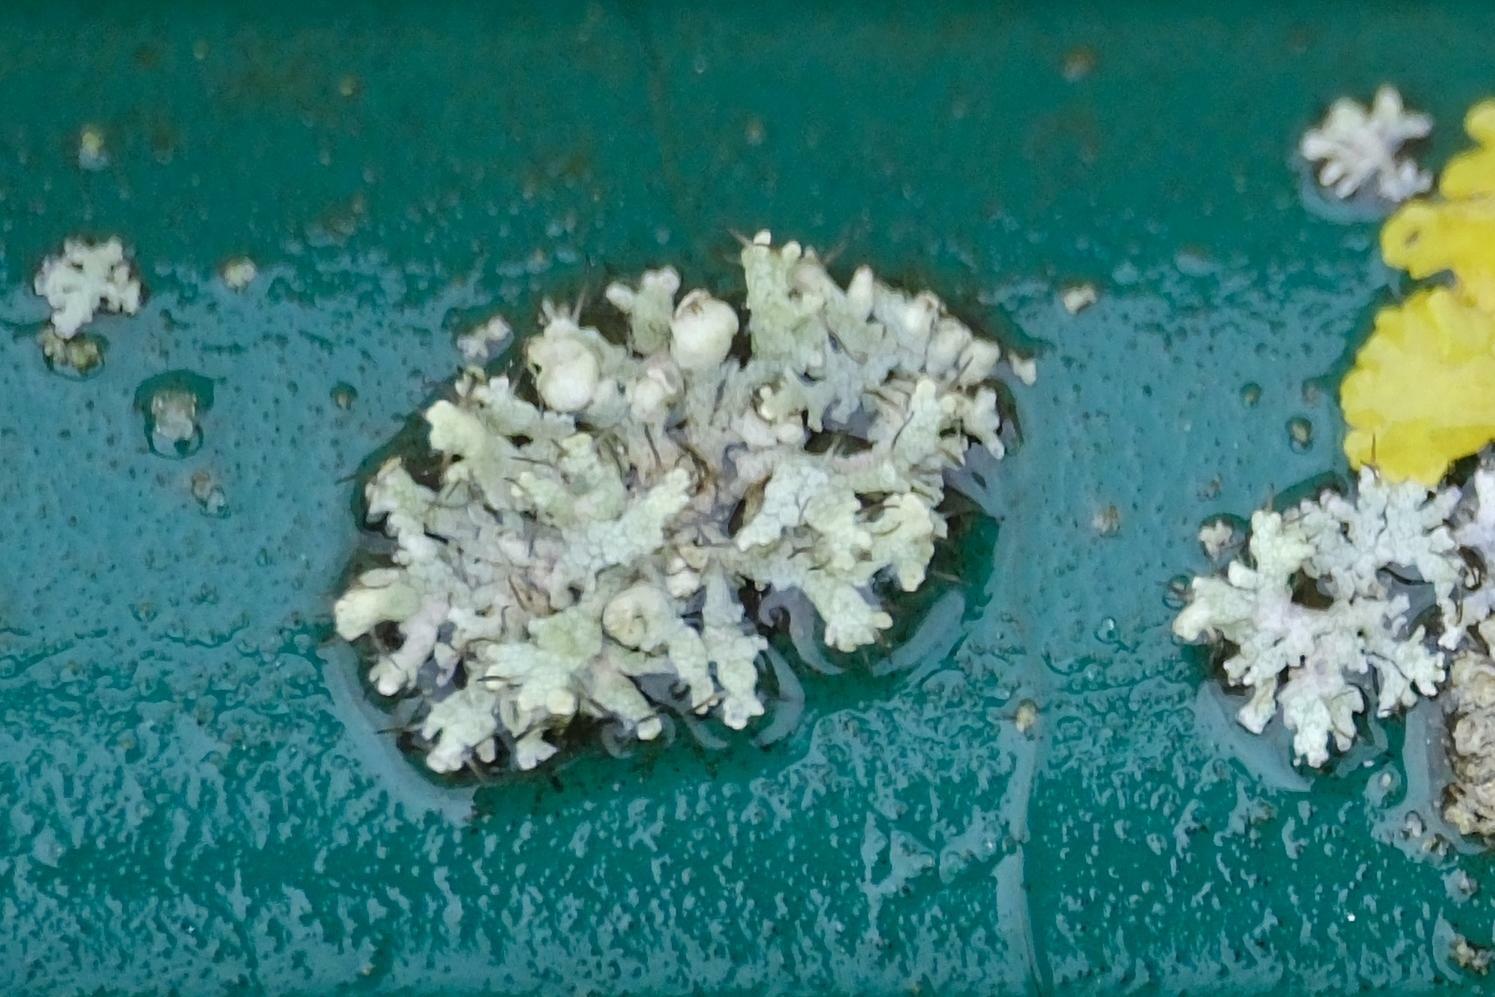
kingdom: Fungi
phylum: Ascomycota
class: Lecanoromycetes
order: Caliciales
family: Physciaceae
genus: Physcia
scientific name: Physcia adscendens
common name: Hooded rosette lichen
